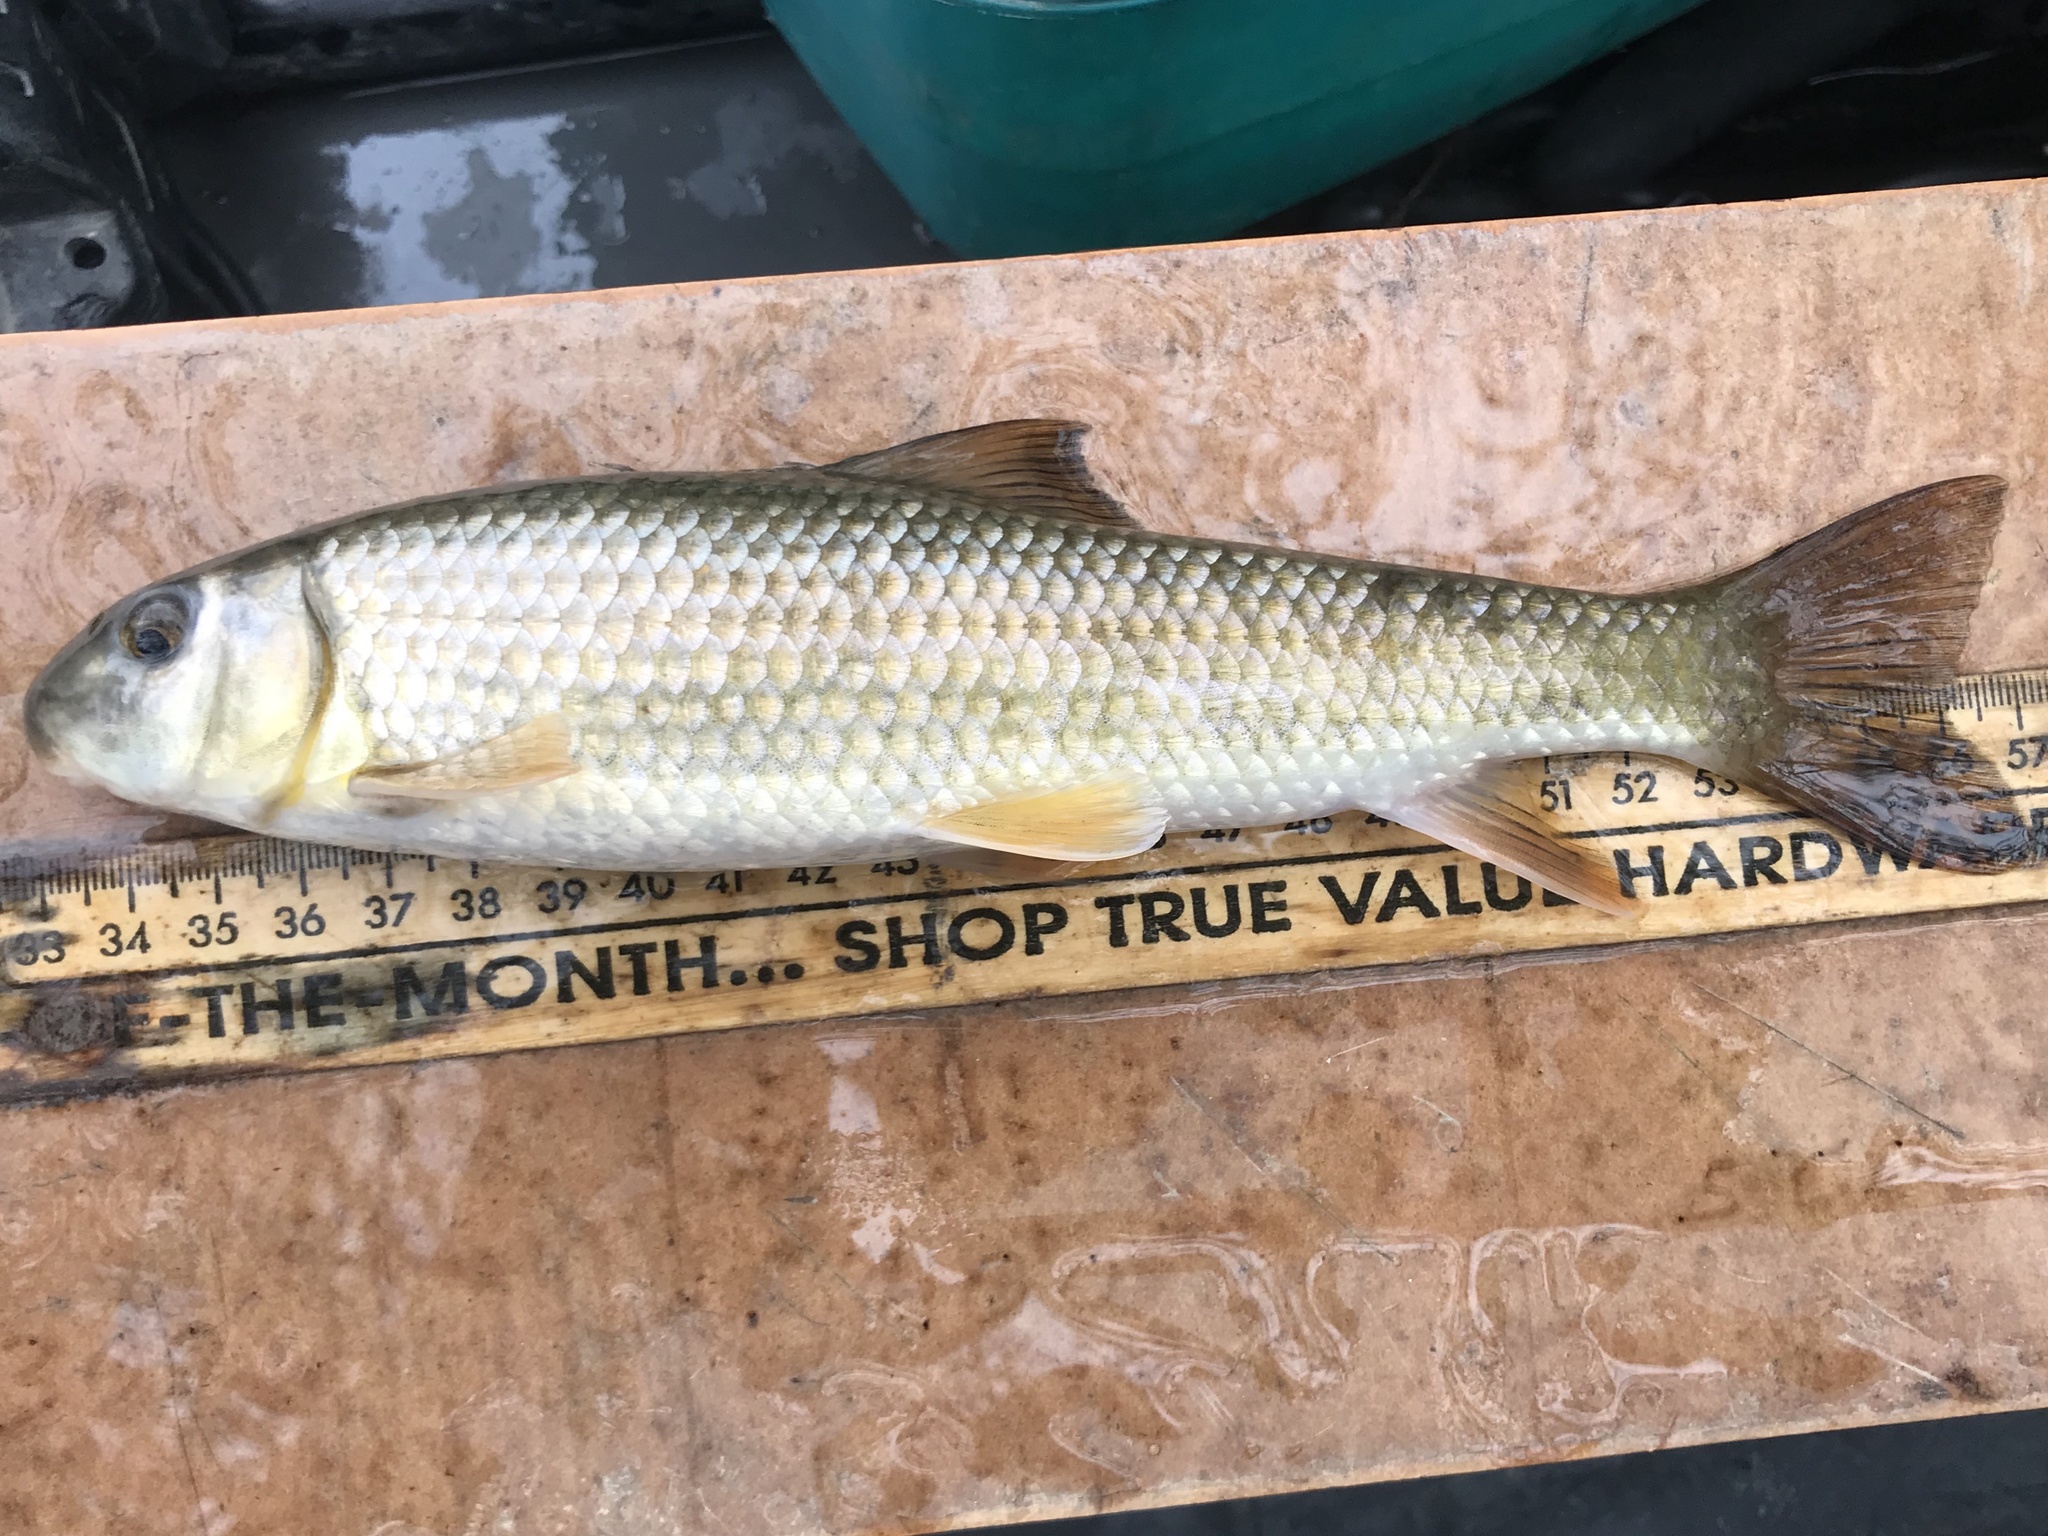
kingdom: Animalia
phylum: Chordata
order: Cypriniformes
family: Catostomidae
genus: Moxostoma
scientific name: Moxostoma congestum
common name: Gray redhorse
